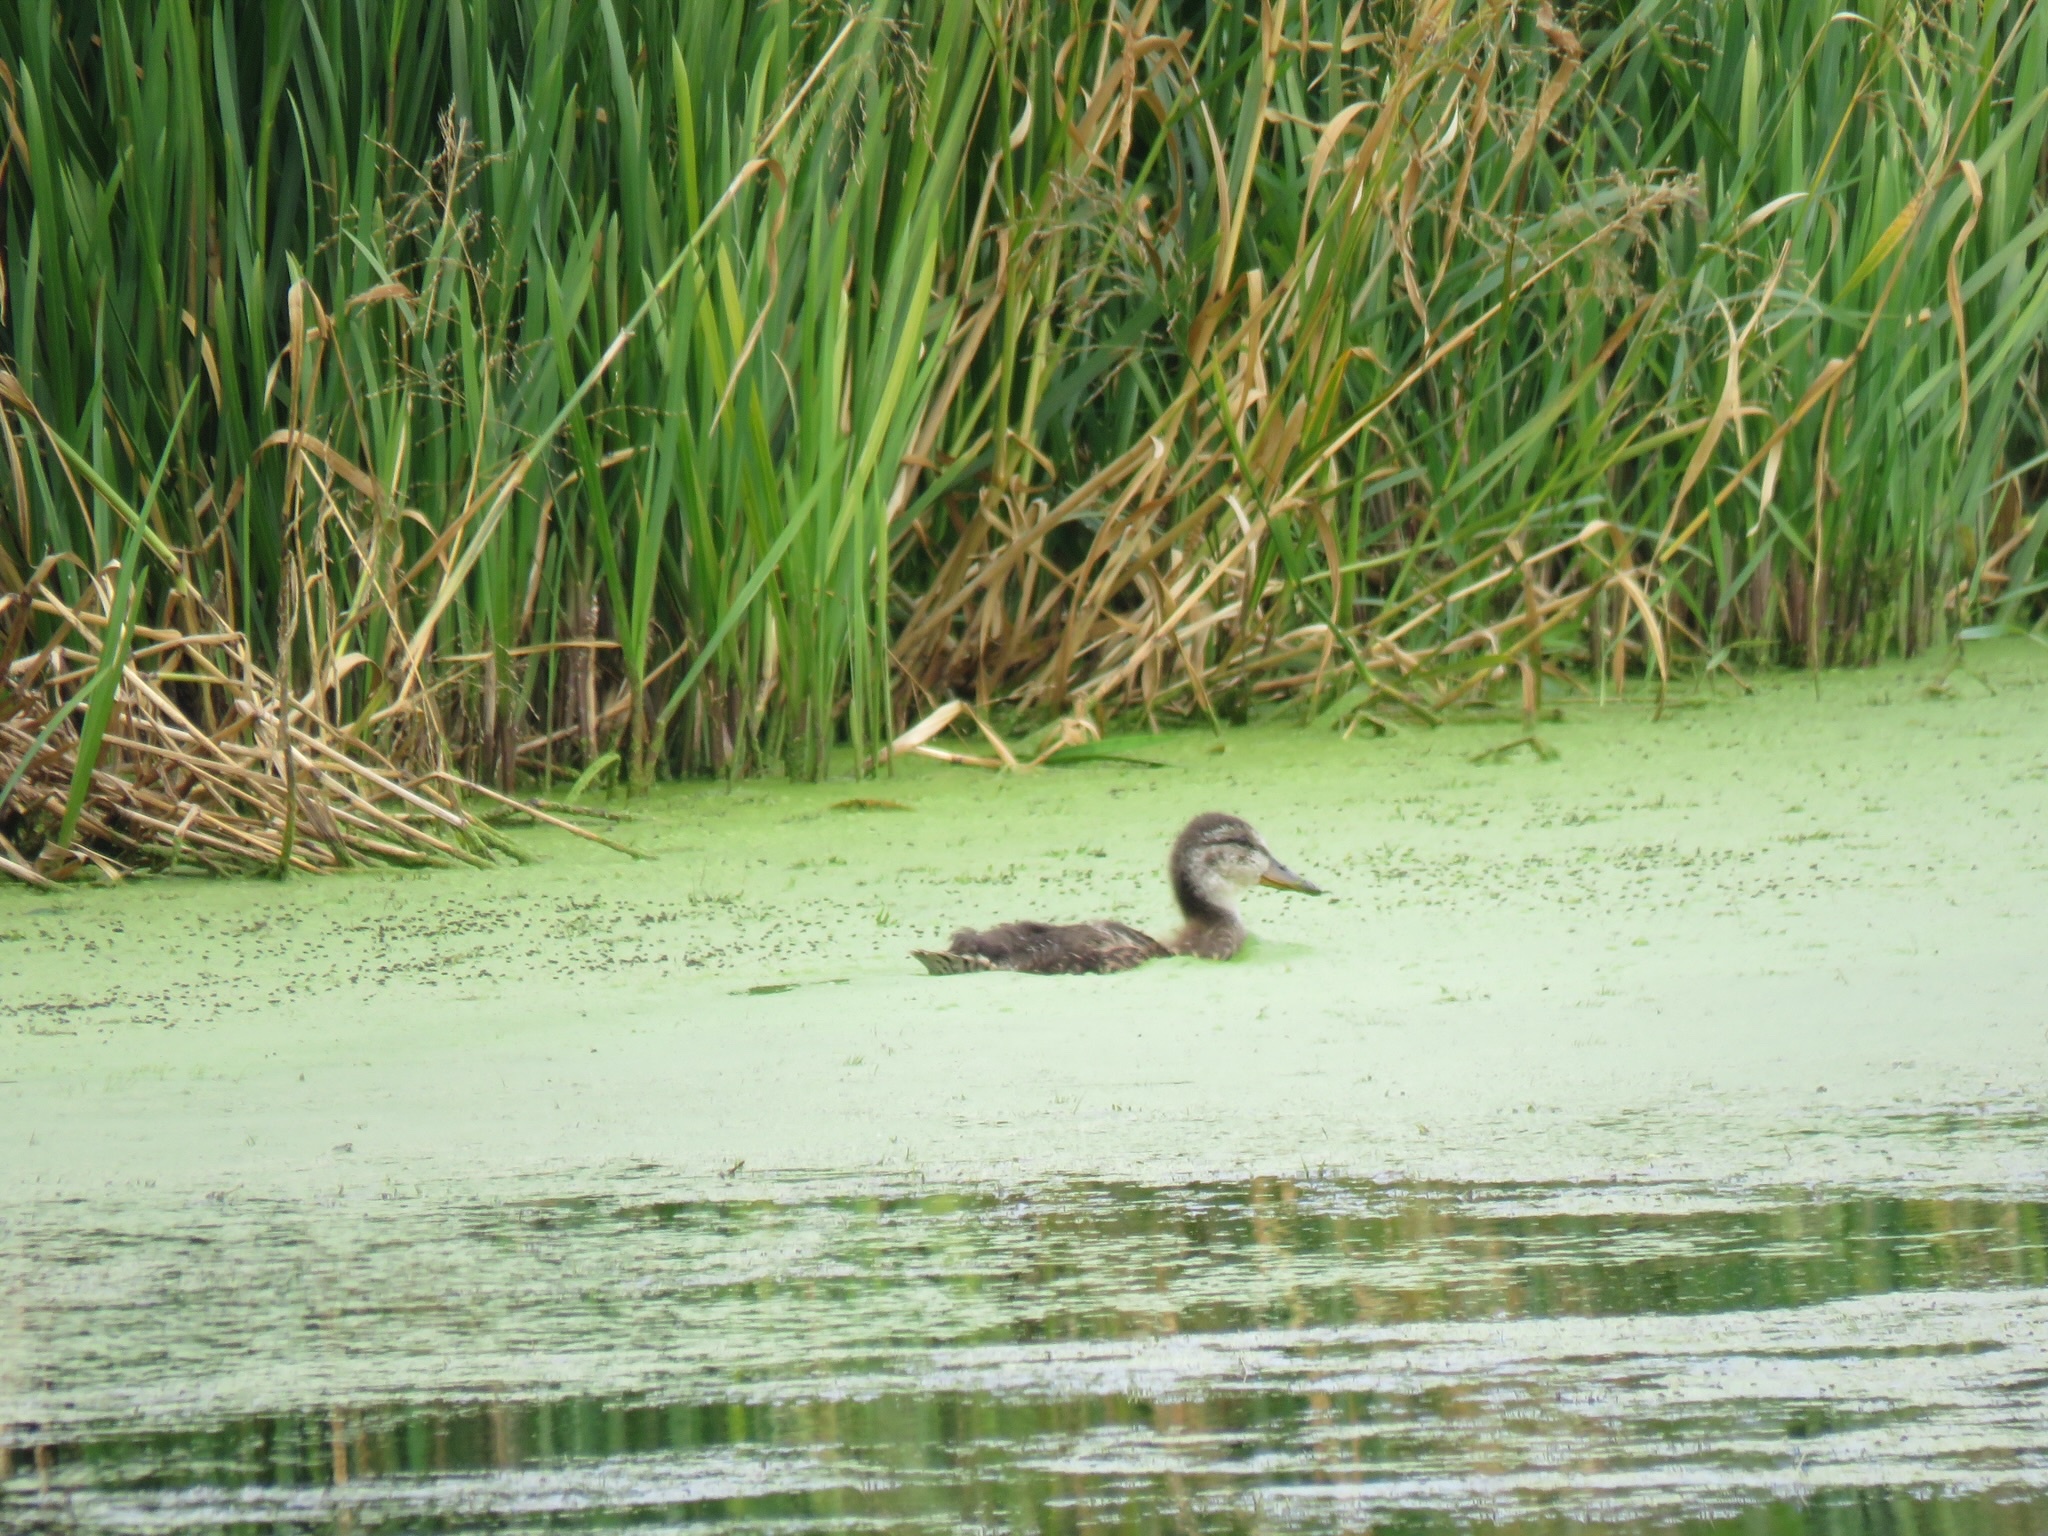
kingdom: Animalia
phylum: Chordata
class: Aves
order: Anseriformes
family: Anatidae
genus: Anas
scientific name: Anas platyrhynchos
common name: Mallard
